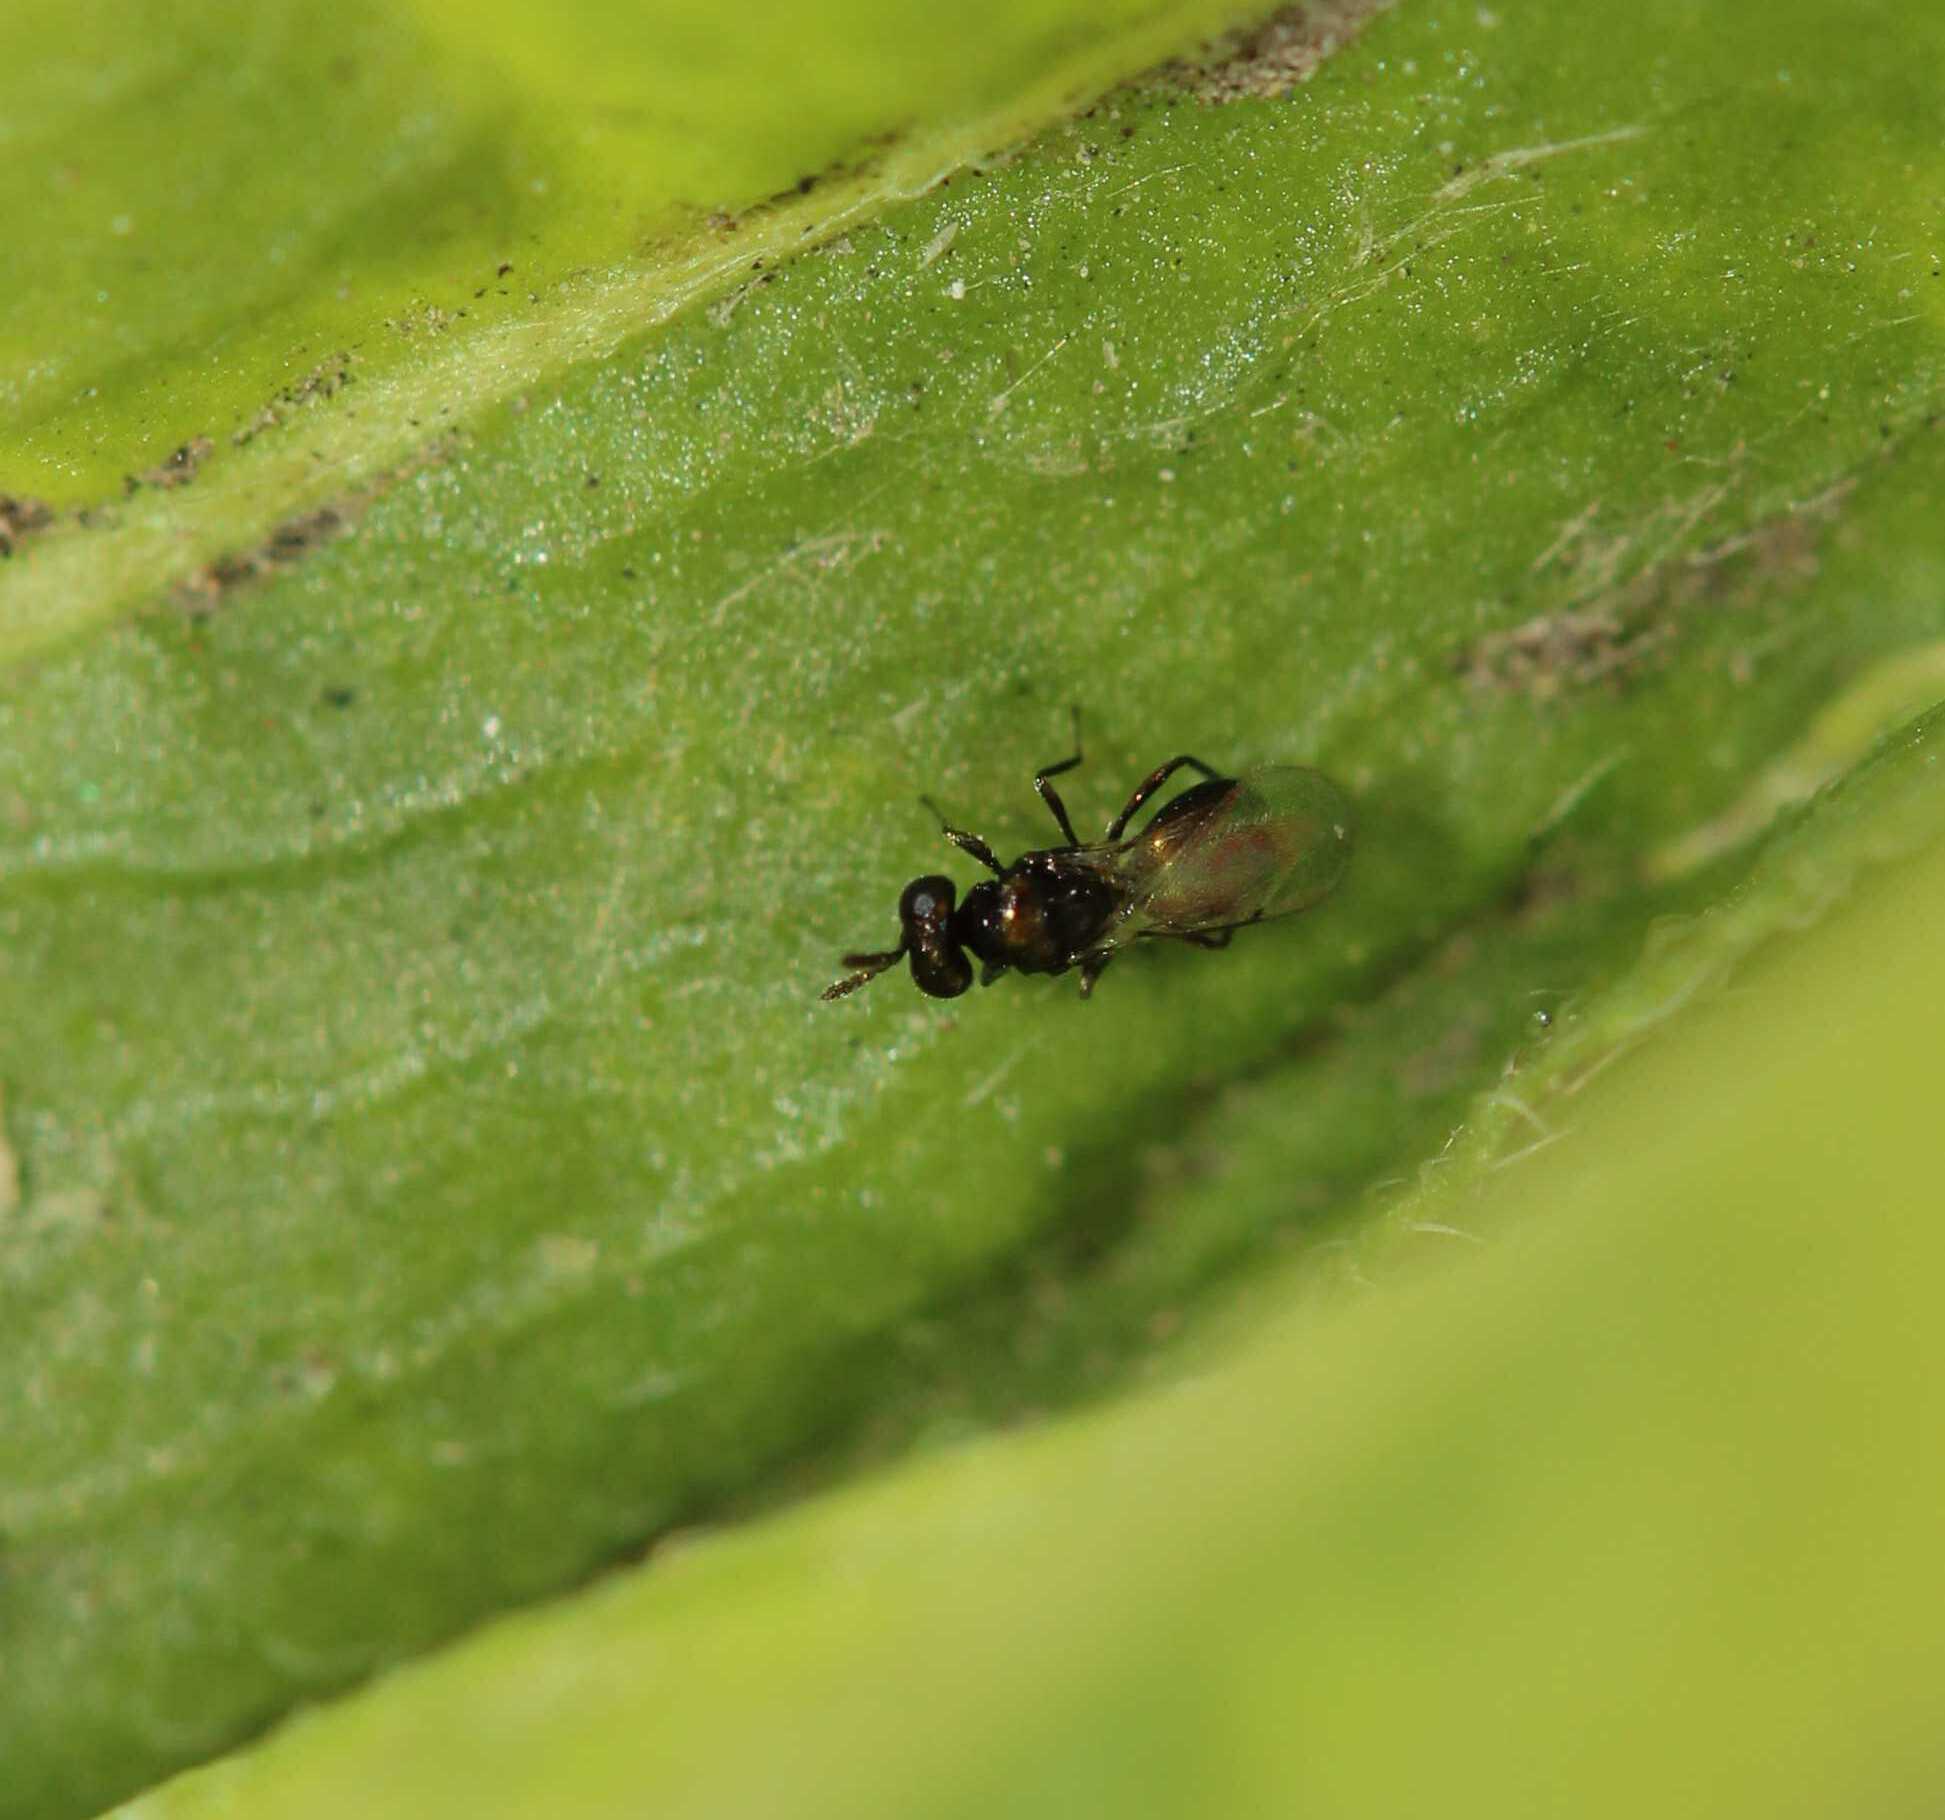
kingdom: Animalia
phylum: Arthropoda
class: Insecta
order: Hymenoptera
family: Eulophidae
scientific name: Eulophidae
